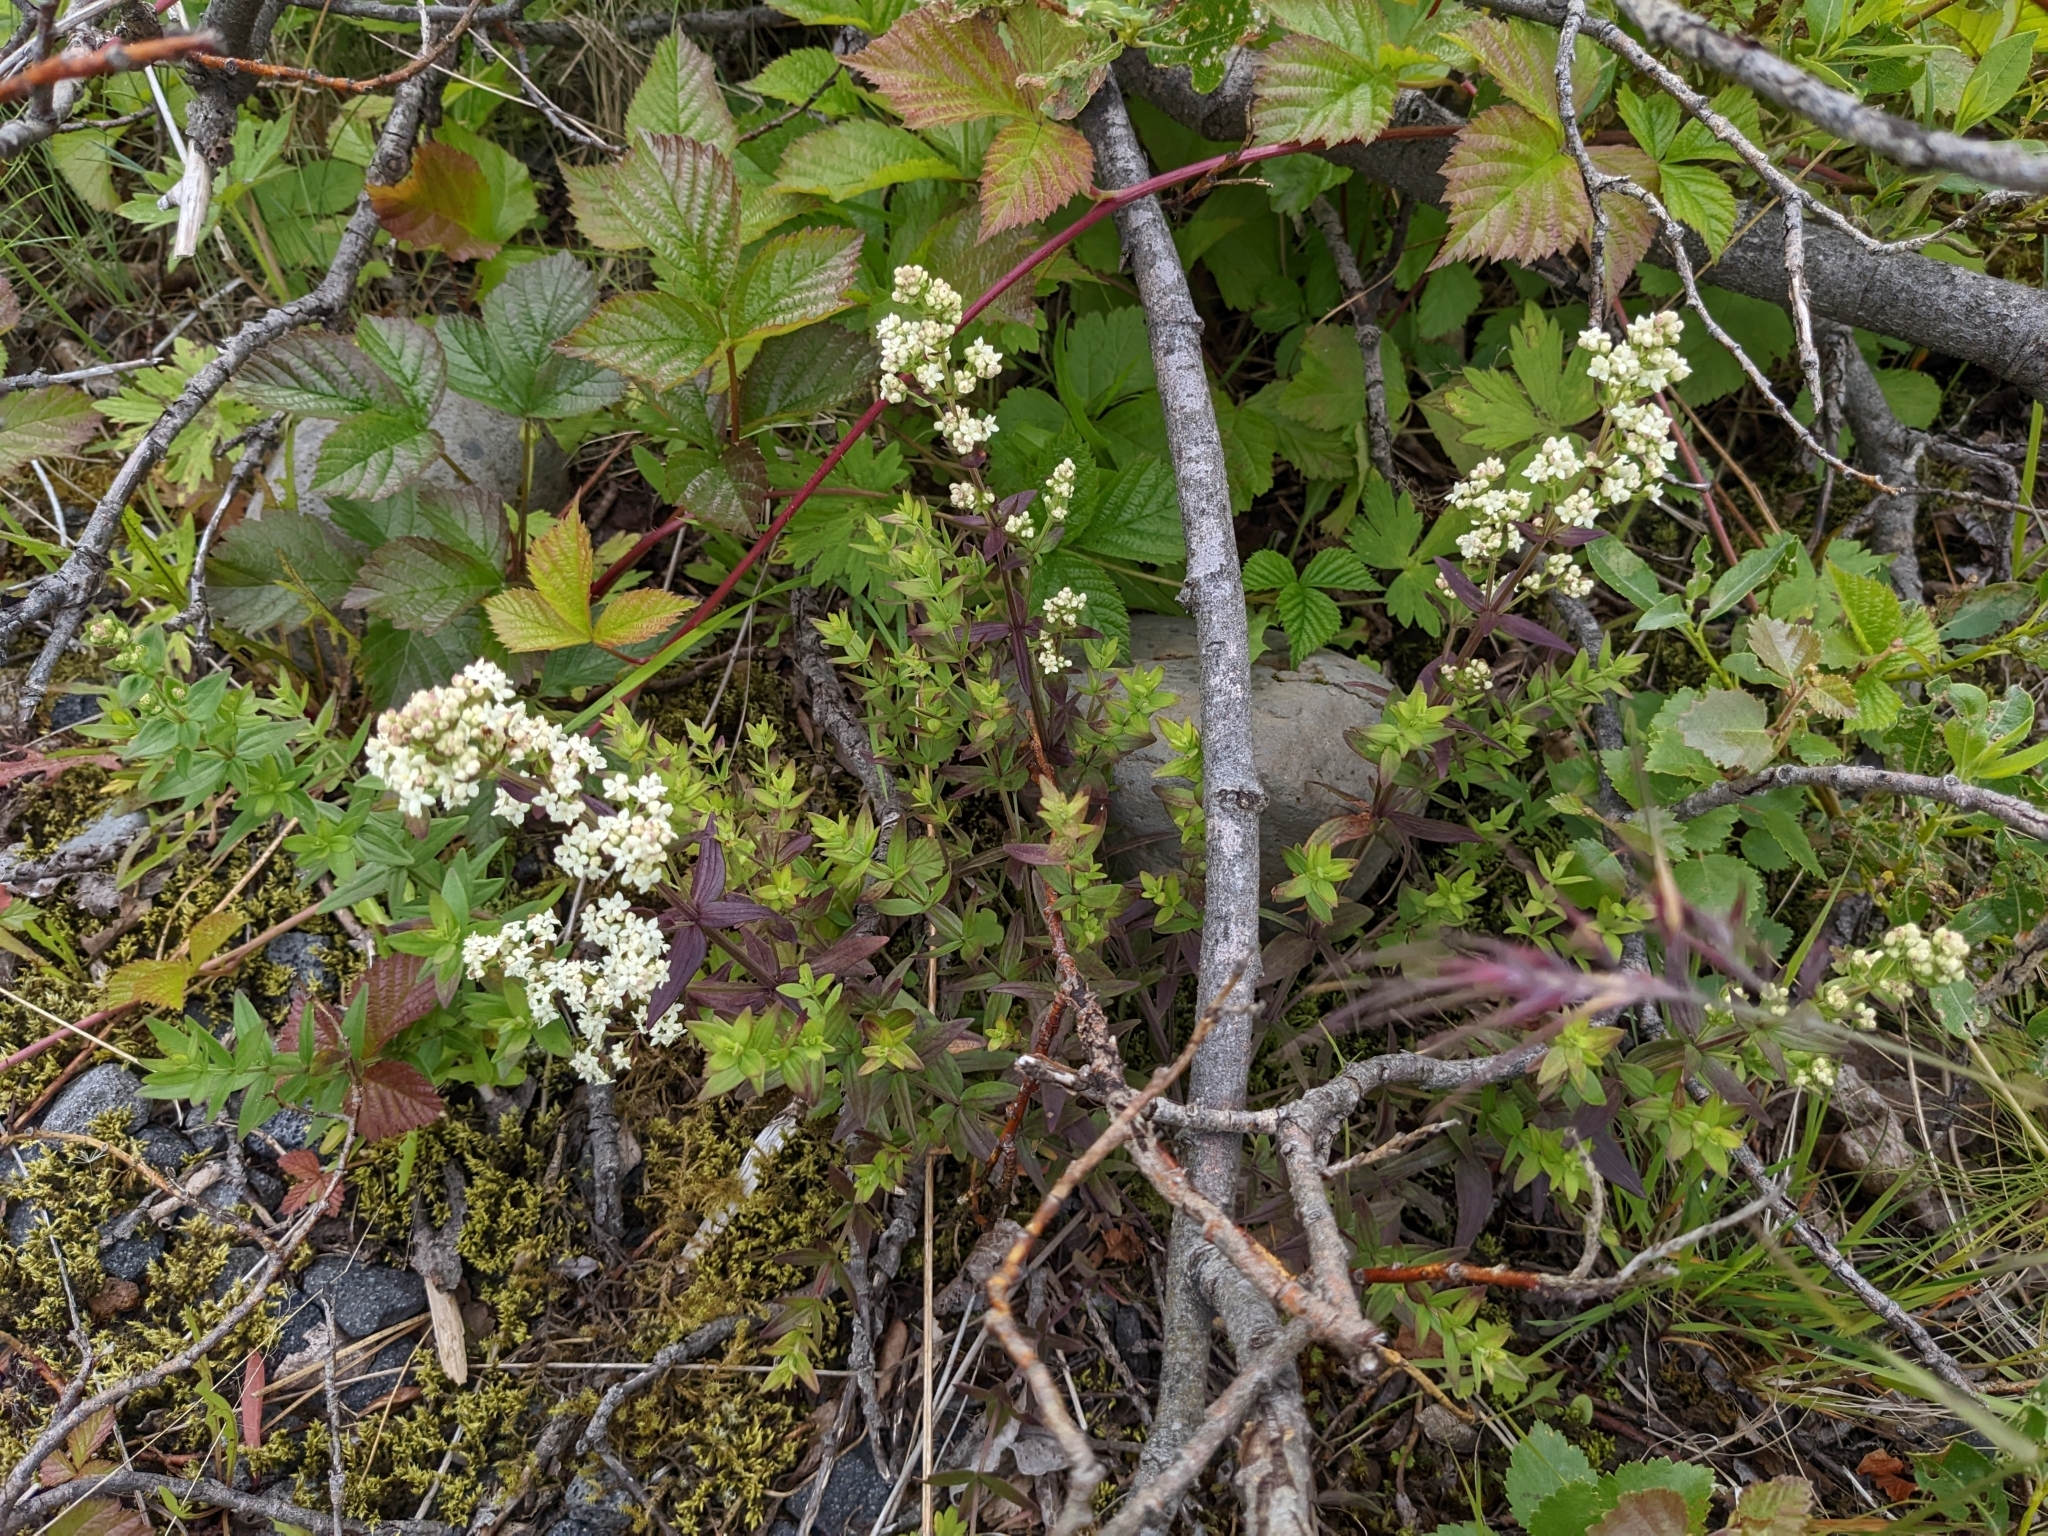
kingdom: Plantae
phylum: Tracheophyta
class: Magnoliopsida
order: Gentianales
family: Rubiaceae
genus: Galium
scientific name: Galium boreale
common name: Northern bedstraw
